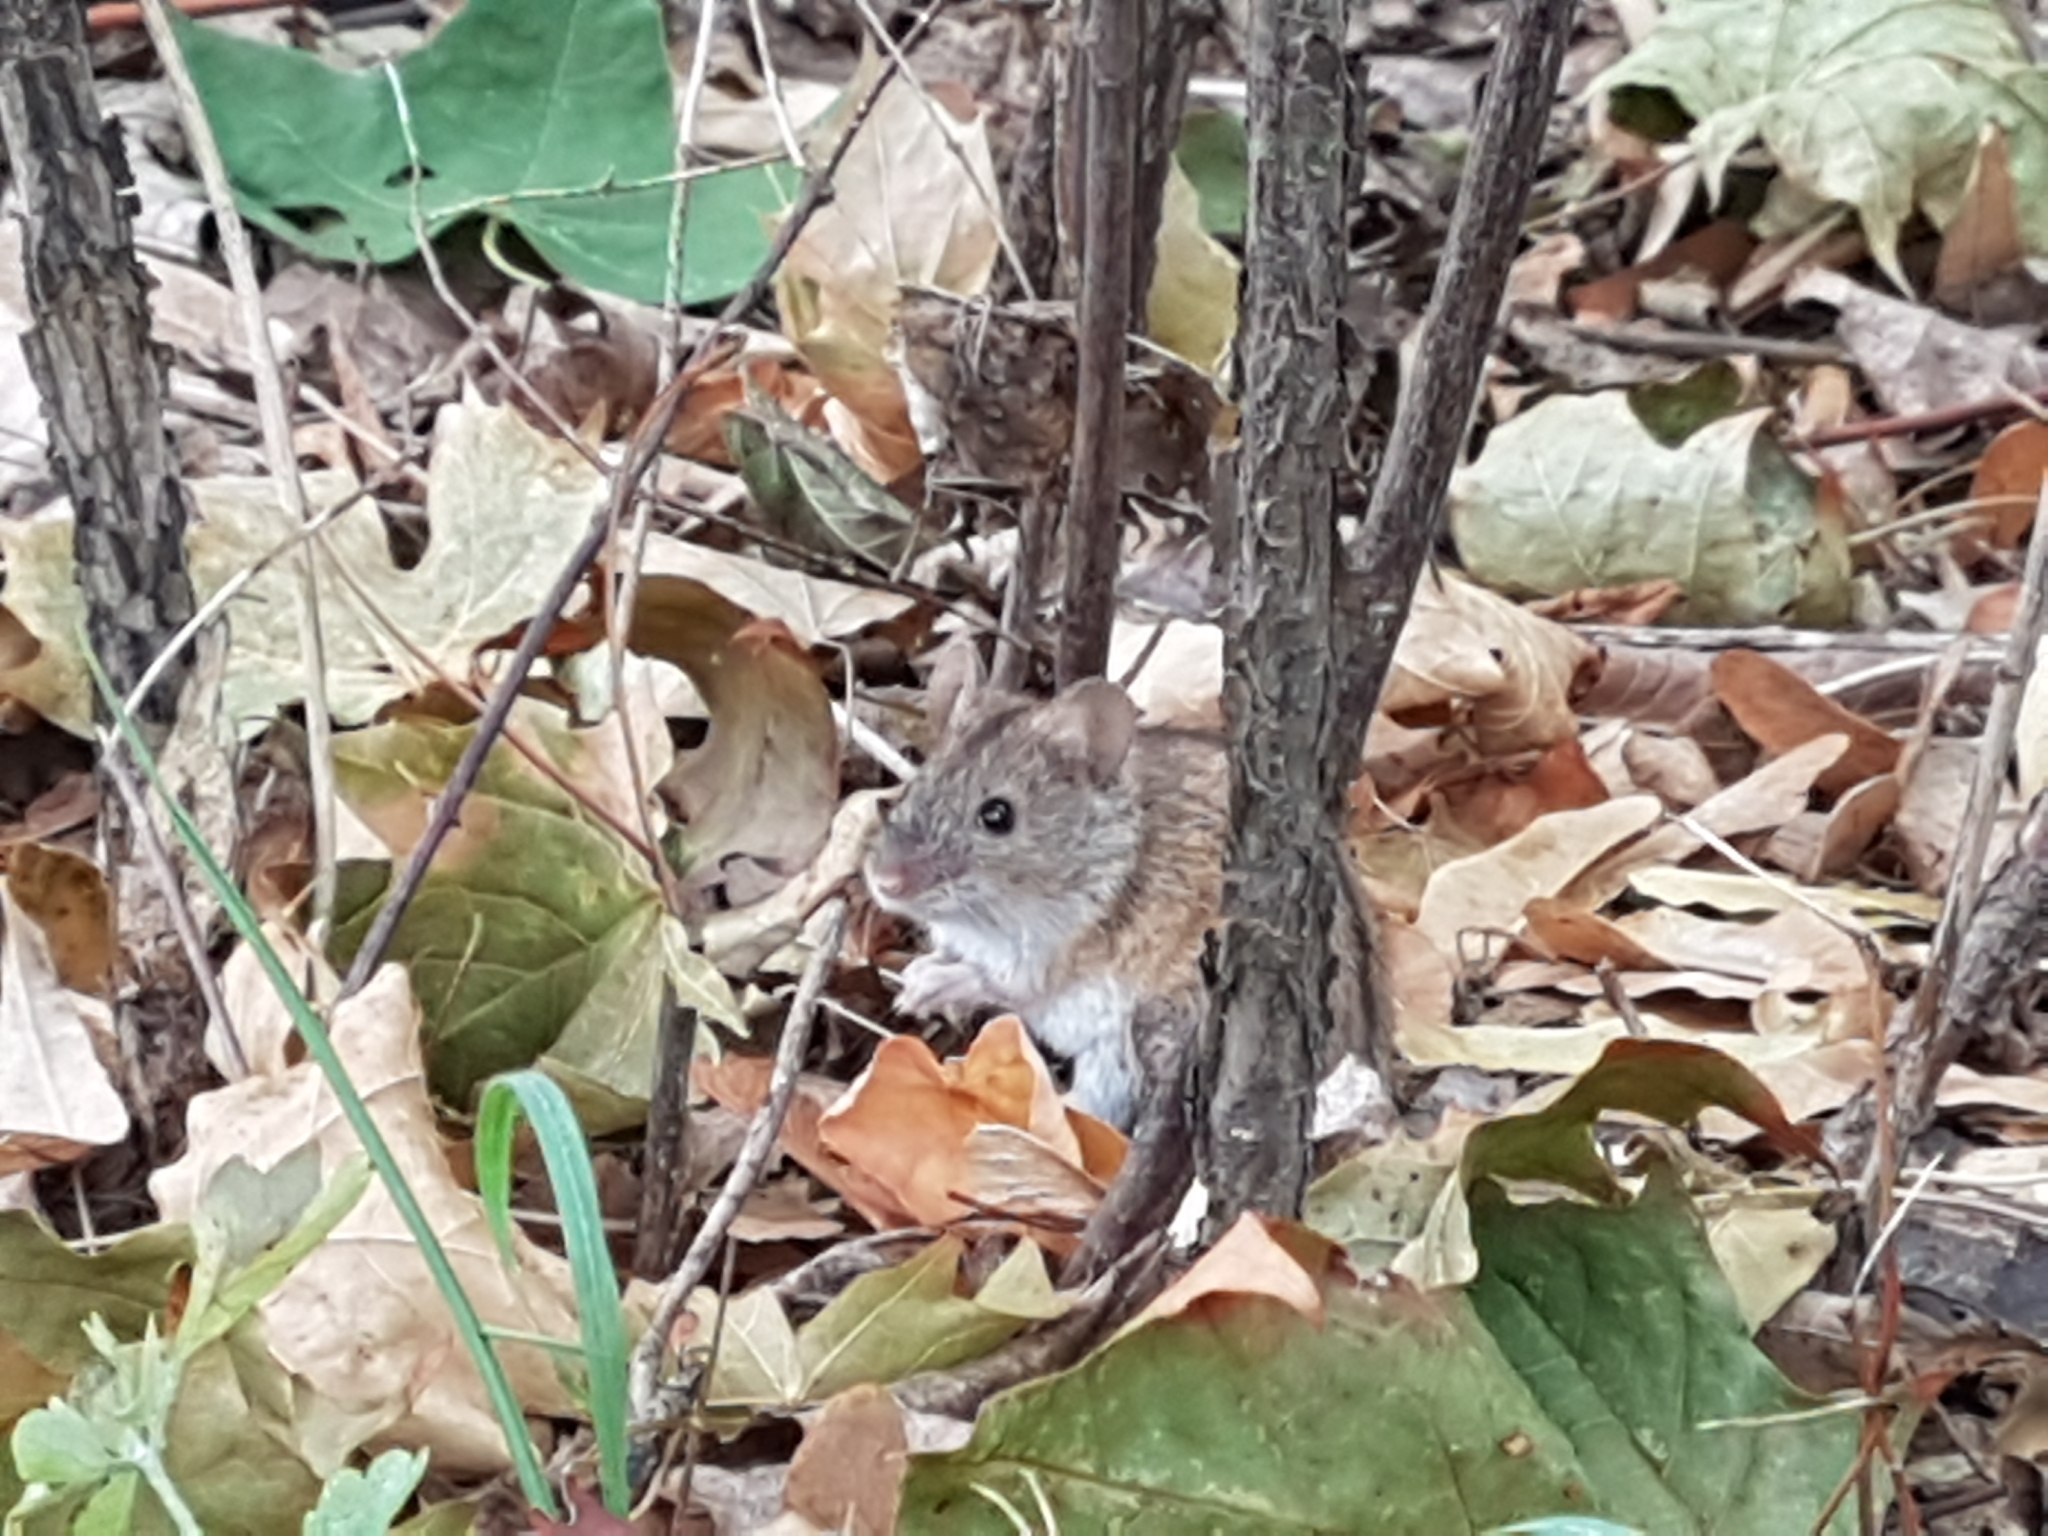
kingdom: Animalia
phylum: Chordata
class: Mammalia
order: Rodentia
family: Muridae
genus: Apodemus
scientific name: Apodemus agrarius
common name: Striped field mouse
